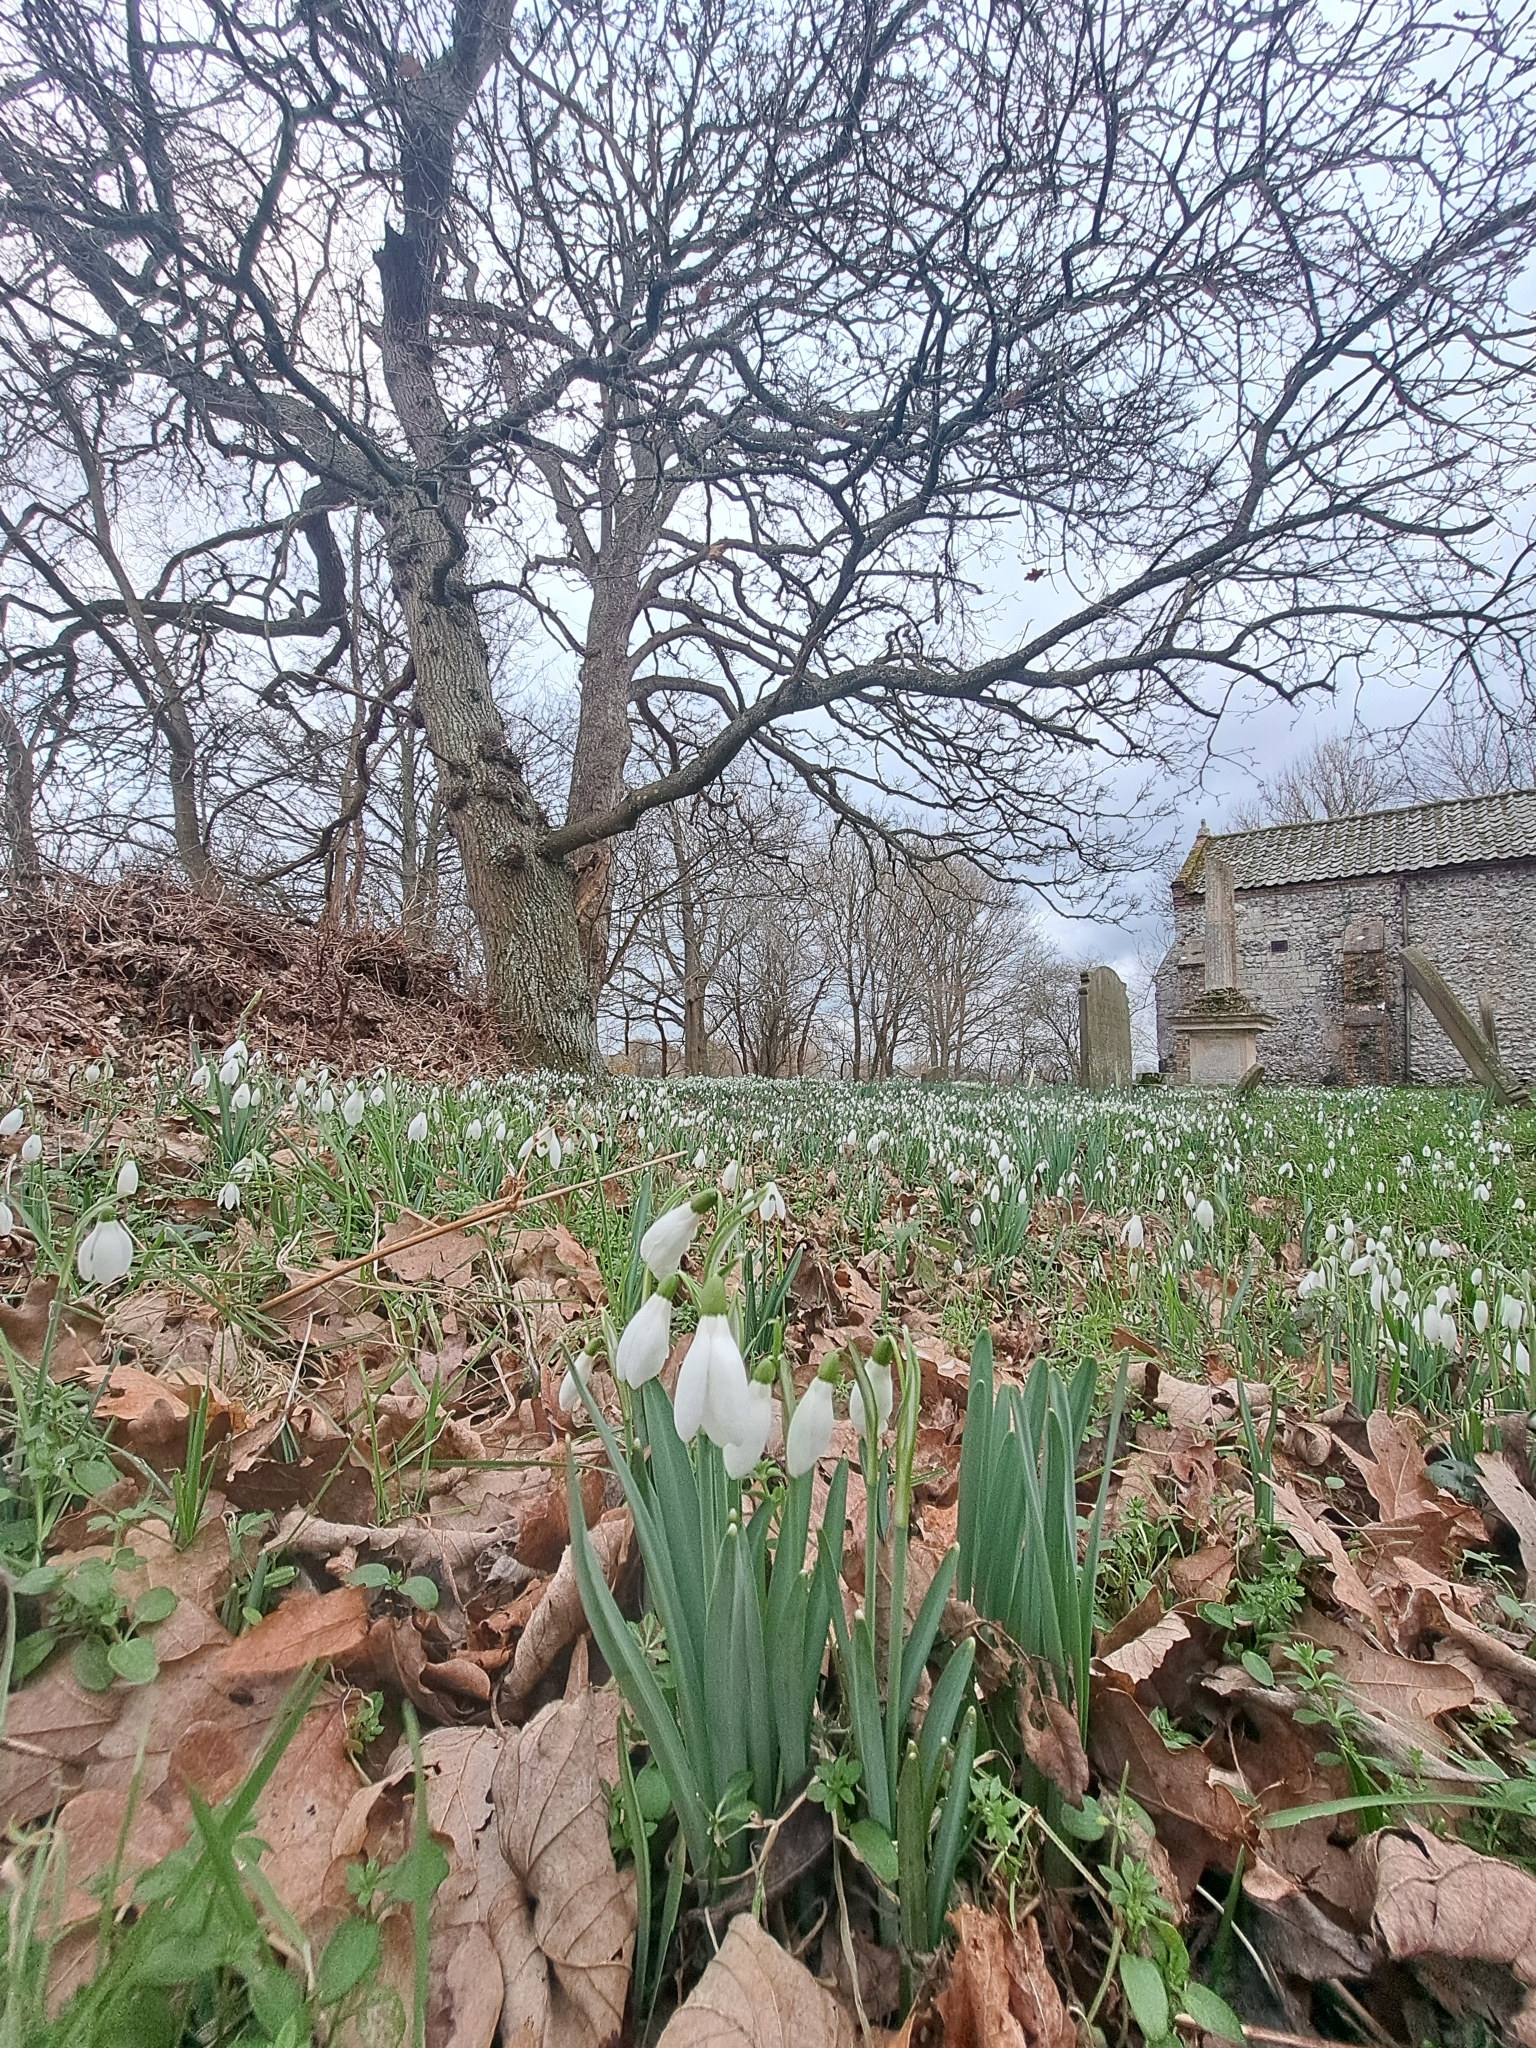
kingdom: Plantae
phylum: Tracheophyta
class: Liliopsida
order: Asparagales
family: Amaryllidaceae
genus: Galanthus
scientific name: Galanthus nivalis
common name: Snowdrop
